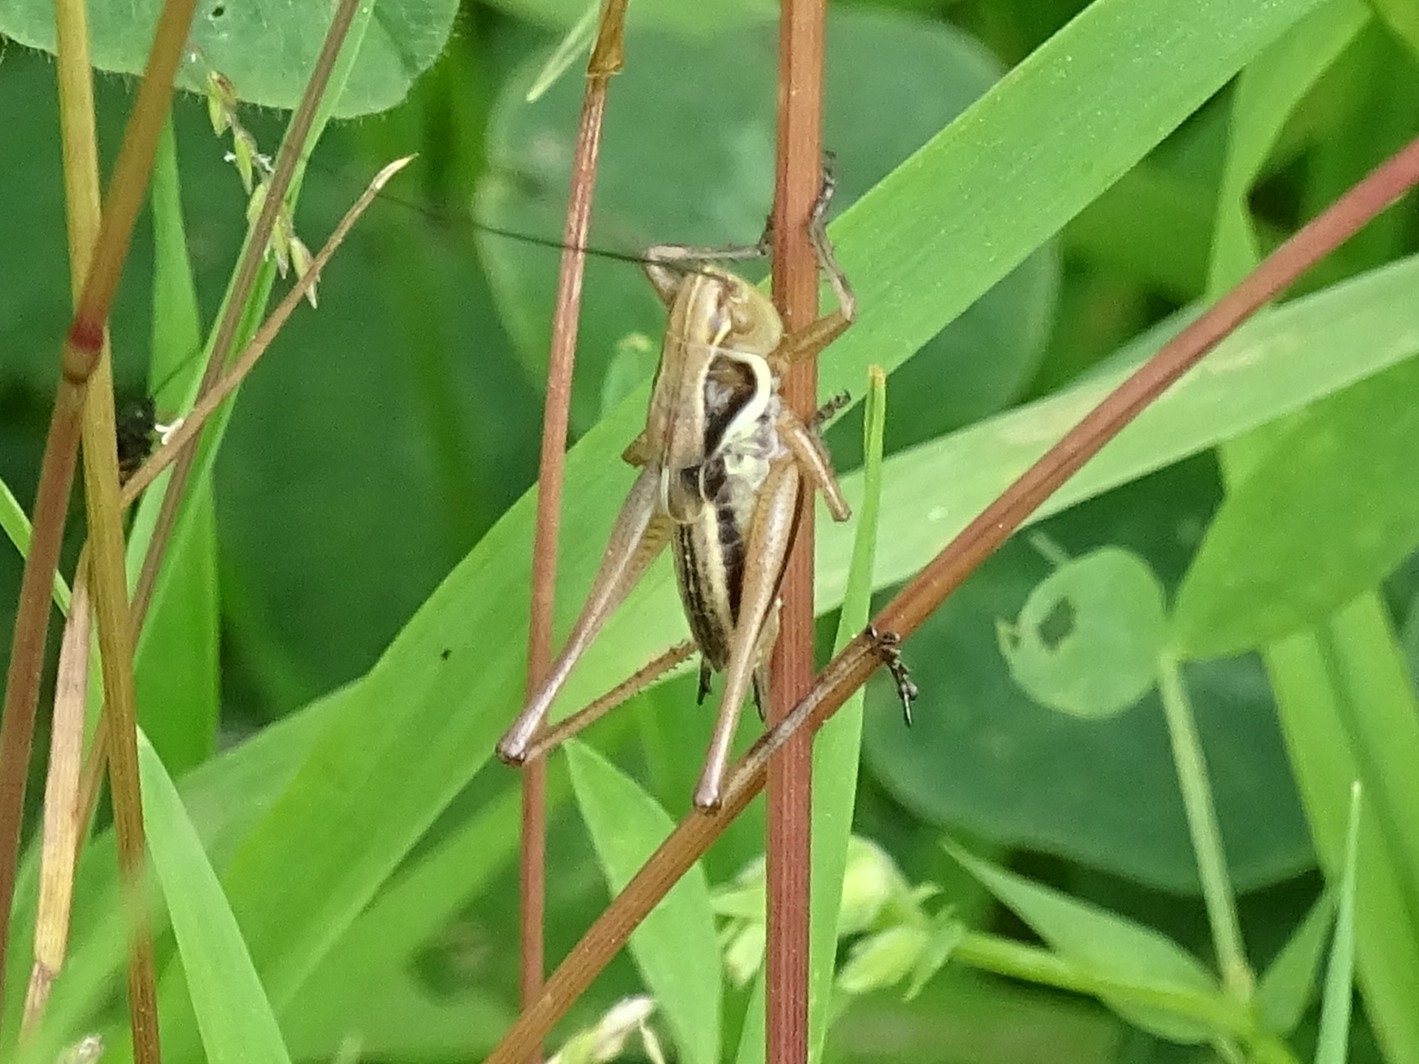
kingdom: Animalia
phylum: Arthropoda
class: Insecta
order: Orthoptera
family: Tettigoniidae
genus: Roeseliana
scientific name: Roeseliana roeselii
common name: Roesel's bush cricket
